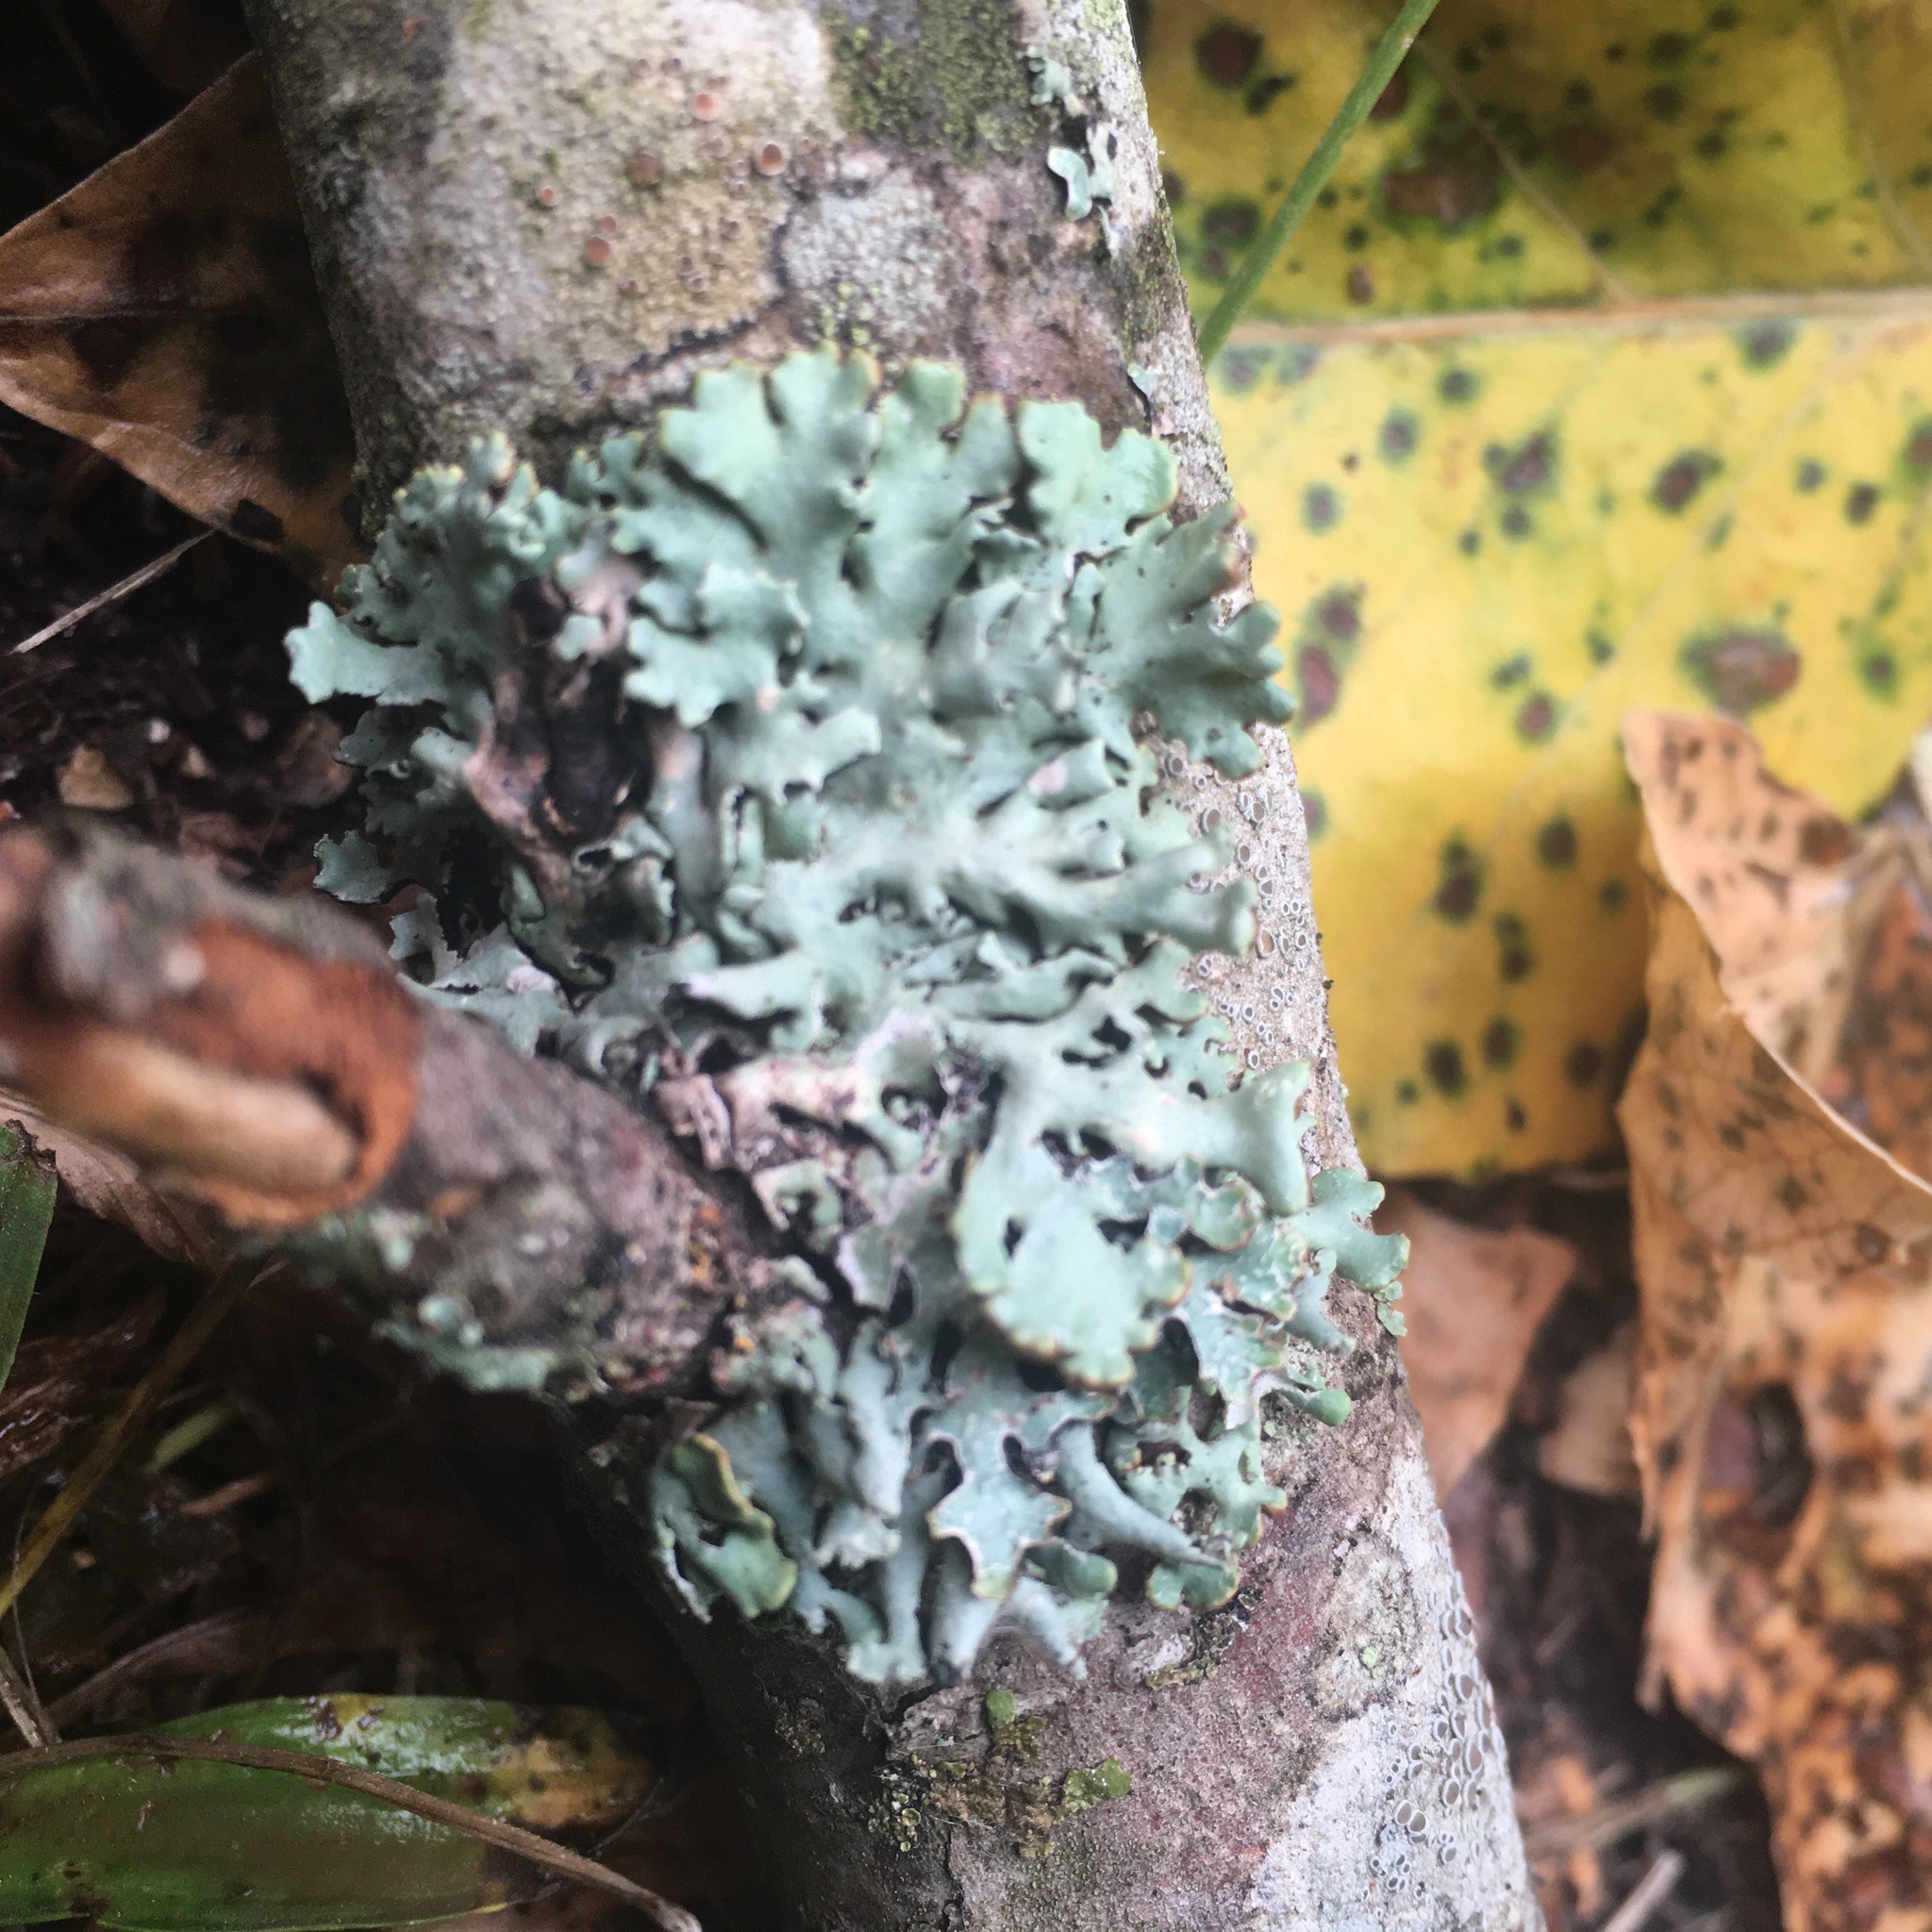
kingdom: Fungi
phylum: Ascomycota
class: Lecanoromycetes
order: Lecanorales
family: Parmeliaceae
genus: Hypogymnia
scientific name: Hypogymnia physodes
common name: Dark crottle
